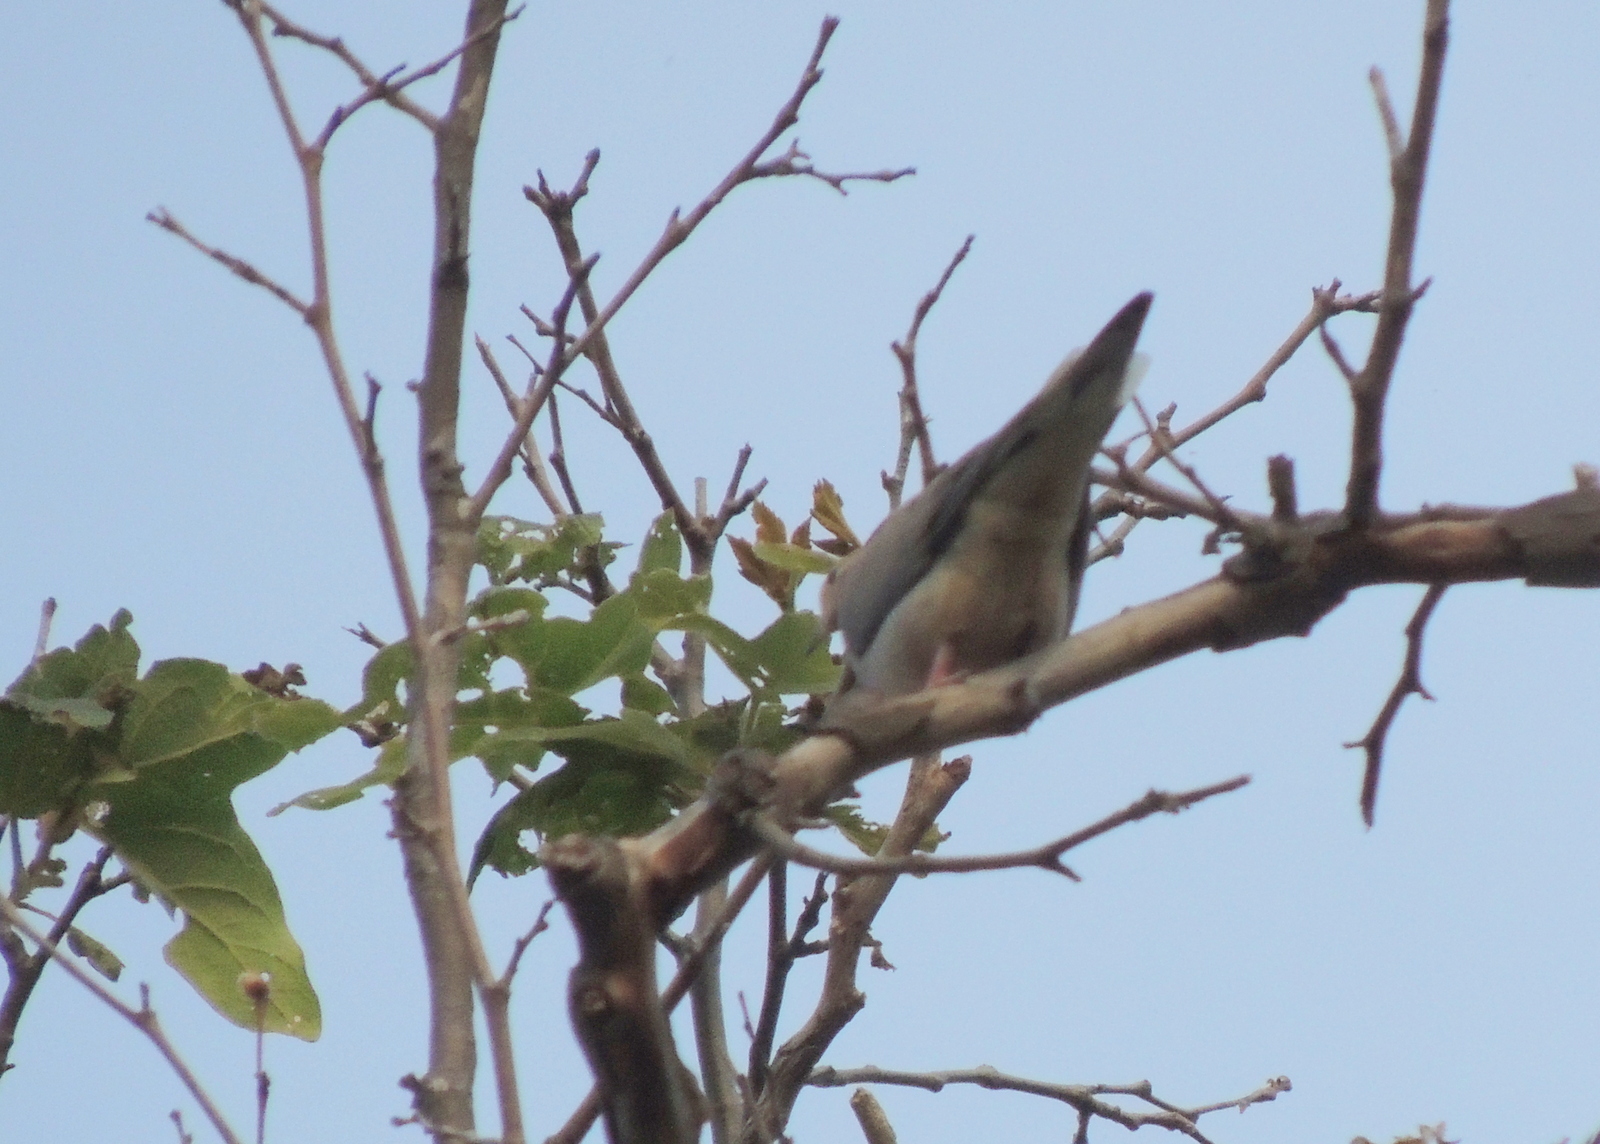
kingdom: Animalia
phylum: Chordata
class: Aves
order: Columbiformes
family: Columbidae
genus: Zenaida
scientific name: Zenaida macroura
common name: Mourning dove
